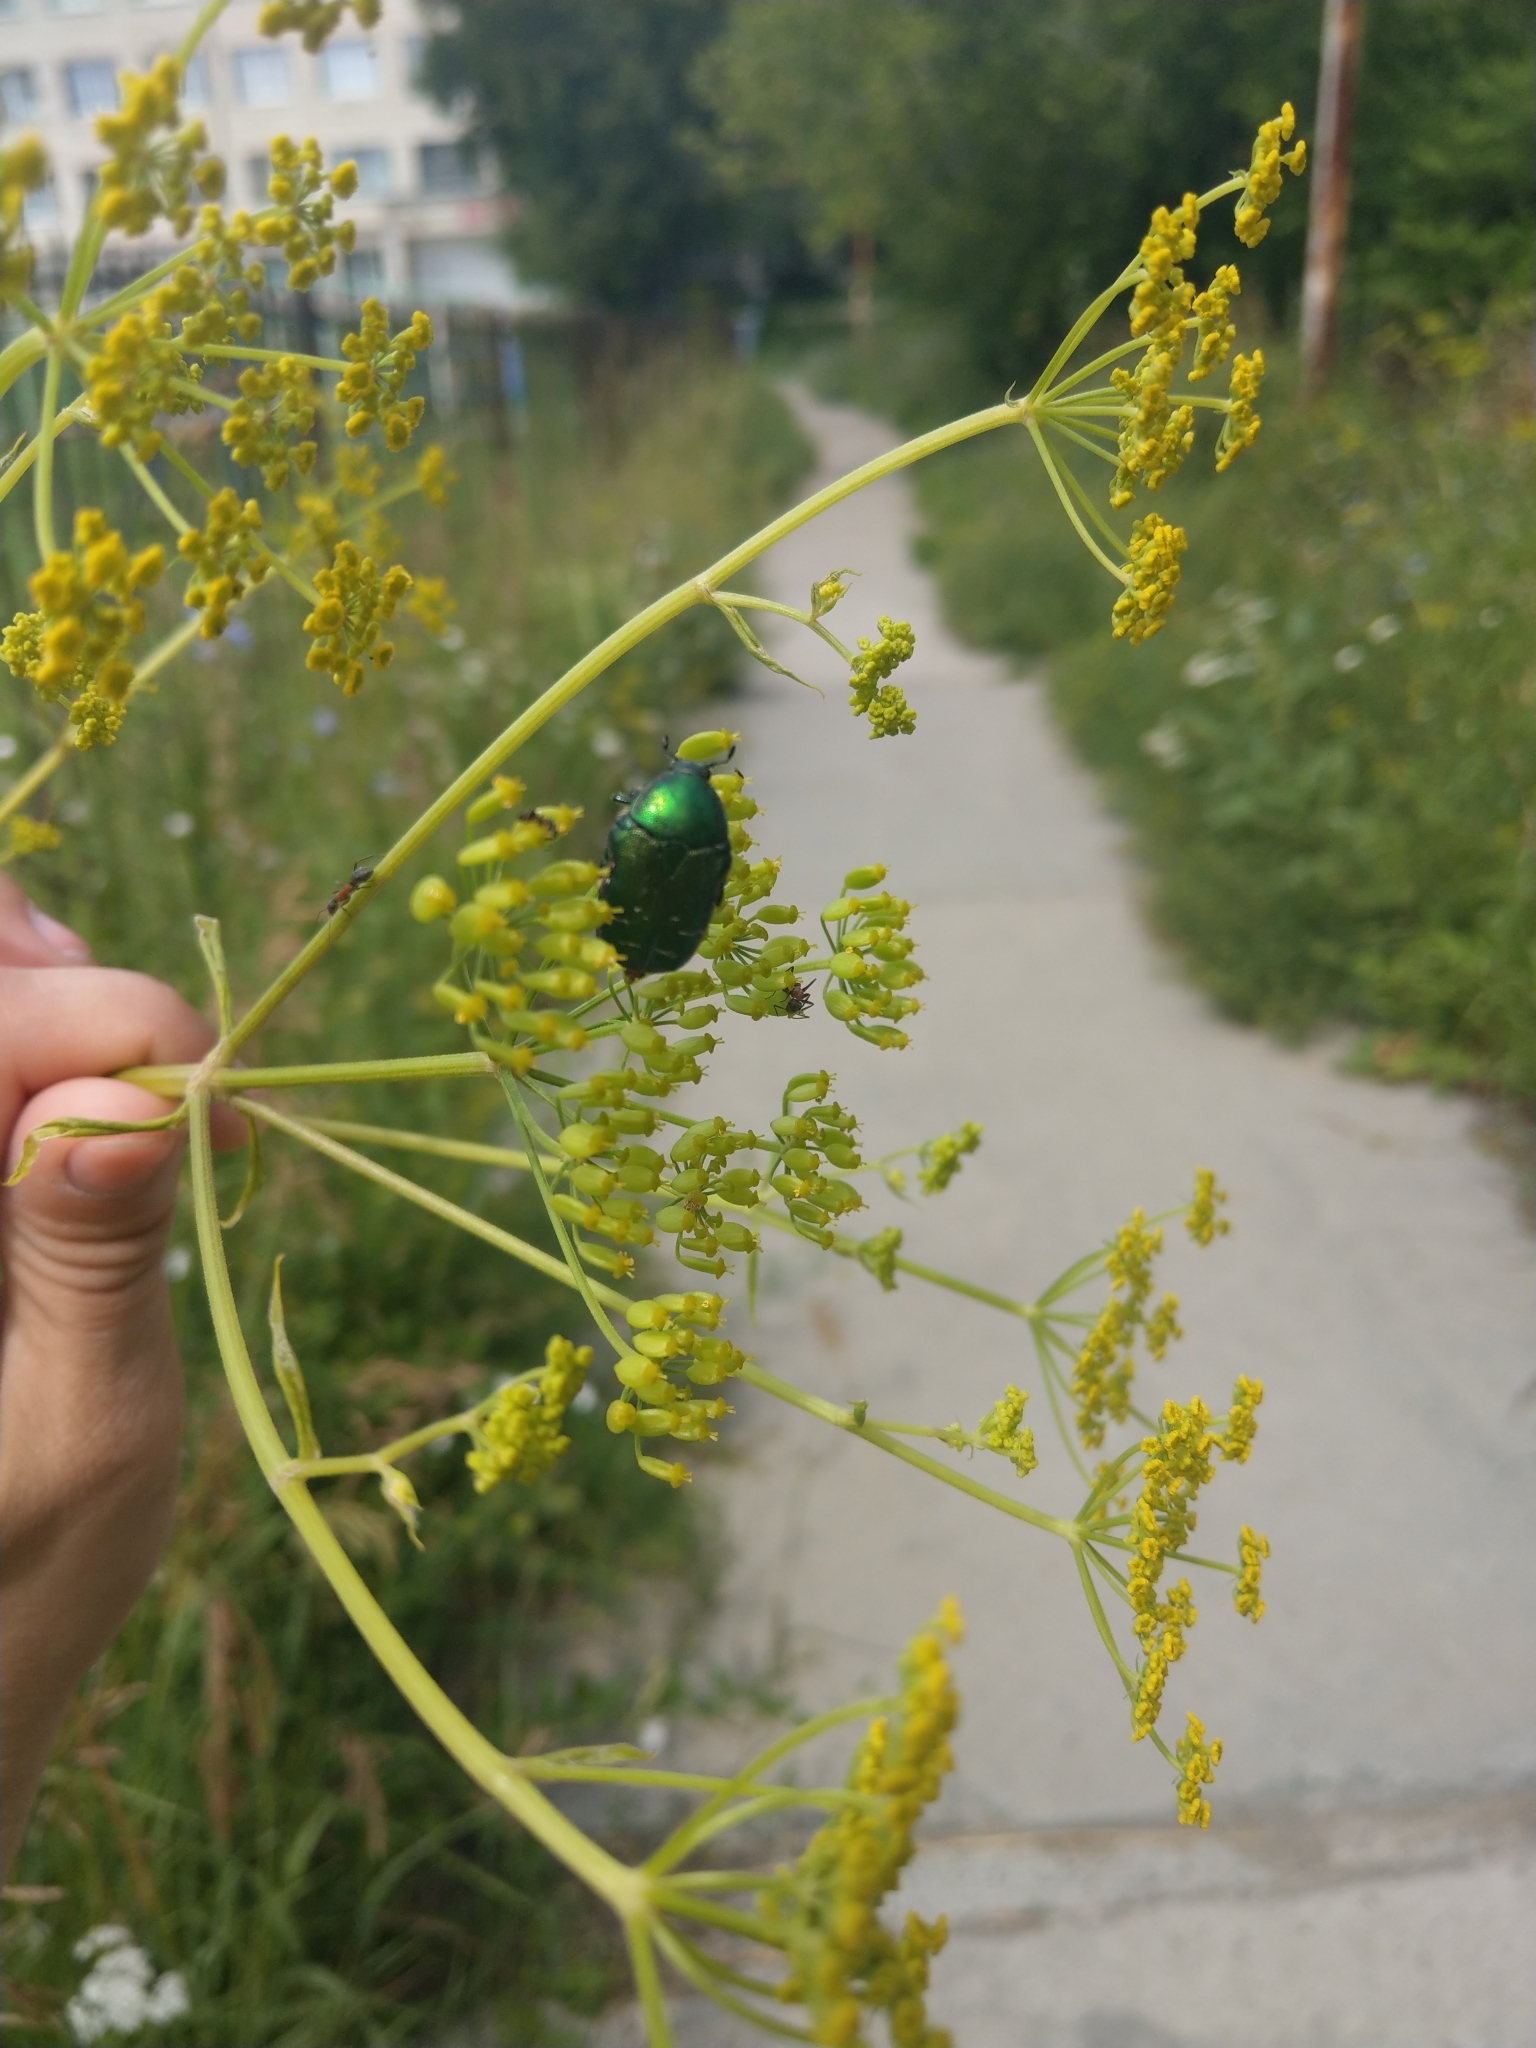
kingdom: Animalia
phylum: Arthropoda
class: Insecta
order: Coleoptera
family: Scarabaeidae
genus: Cetonia
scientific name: Cetonia aurata
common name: Rose chafer
